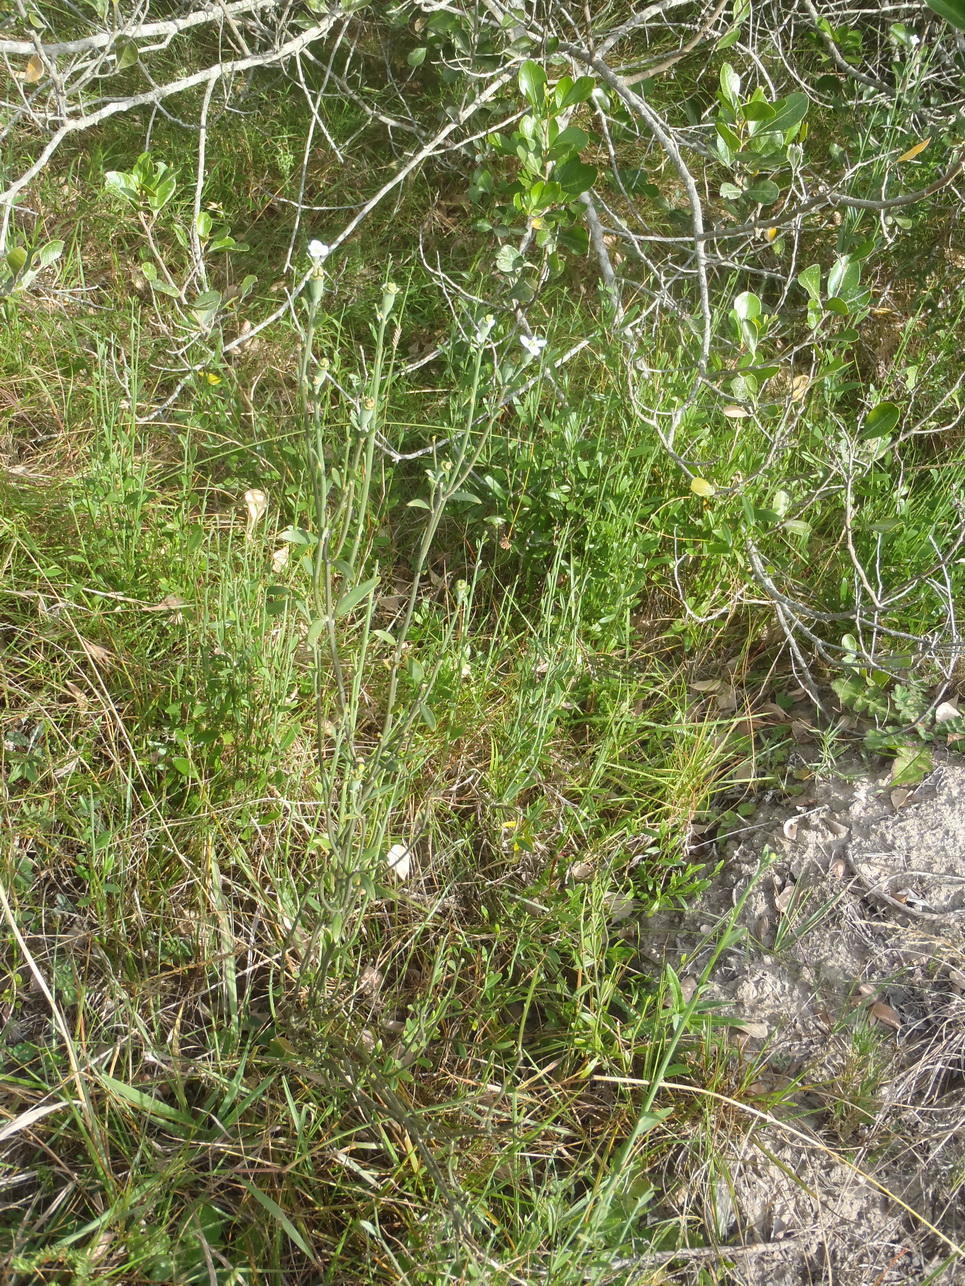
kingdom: Plantae
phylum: Tracheophyta
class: Magnoliopsida
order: Solanales
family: Montiniaceae
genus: Montinia
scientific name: Montinia caryophyllacea
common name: Wild clove-bush
